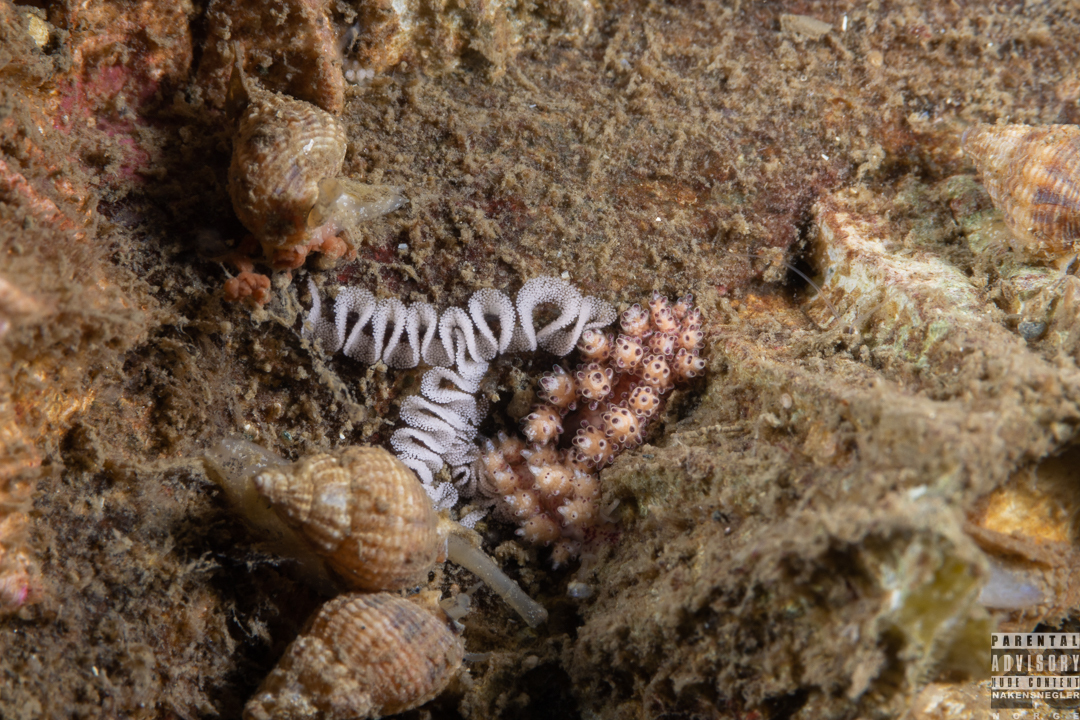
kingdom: Animalia
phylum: Mollusca
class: Gastropoda
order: Nudibranchia
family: Dotidae
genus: Doto
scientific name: Doto coronata
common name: Coronate doto
